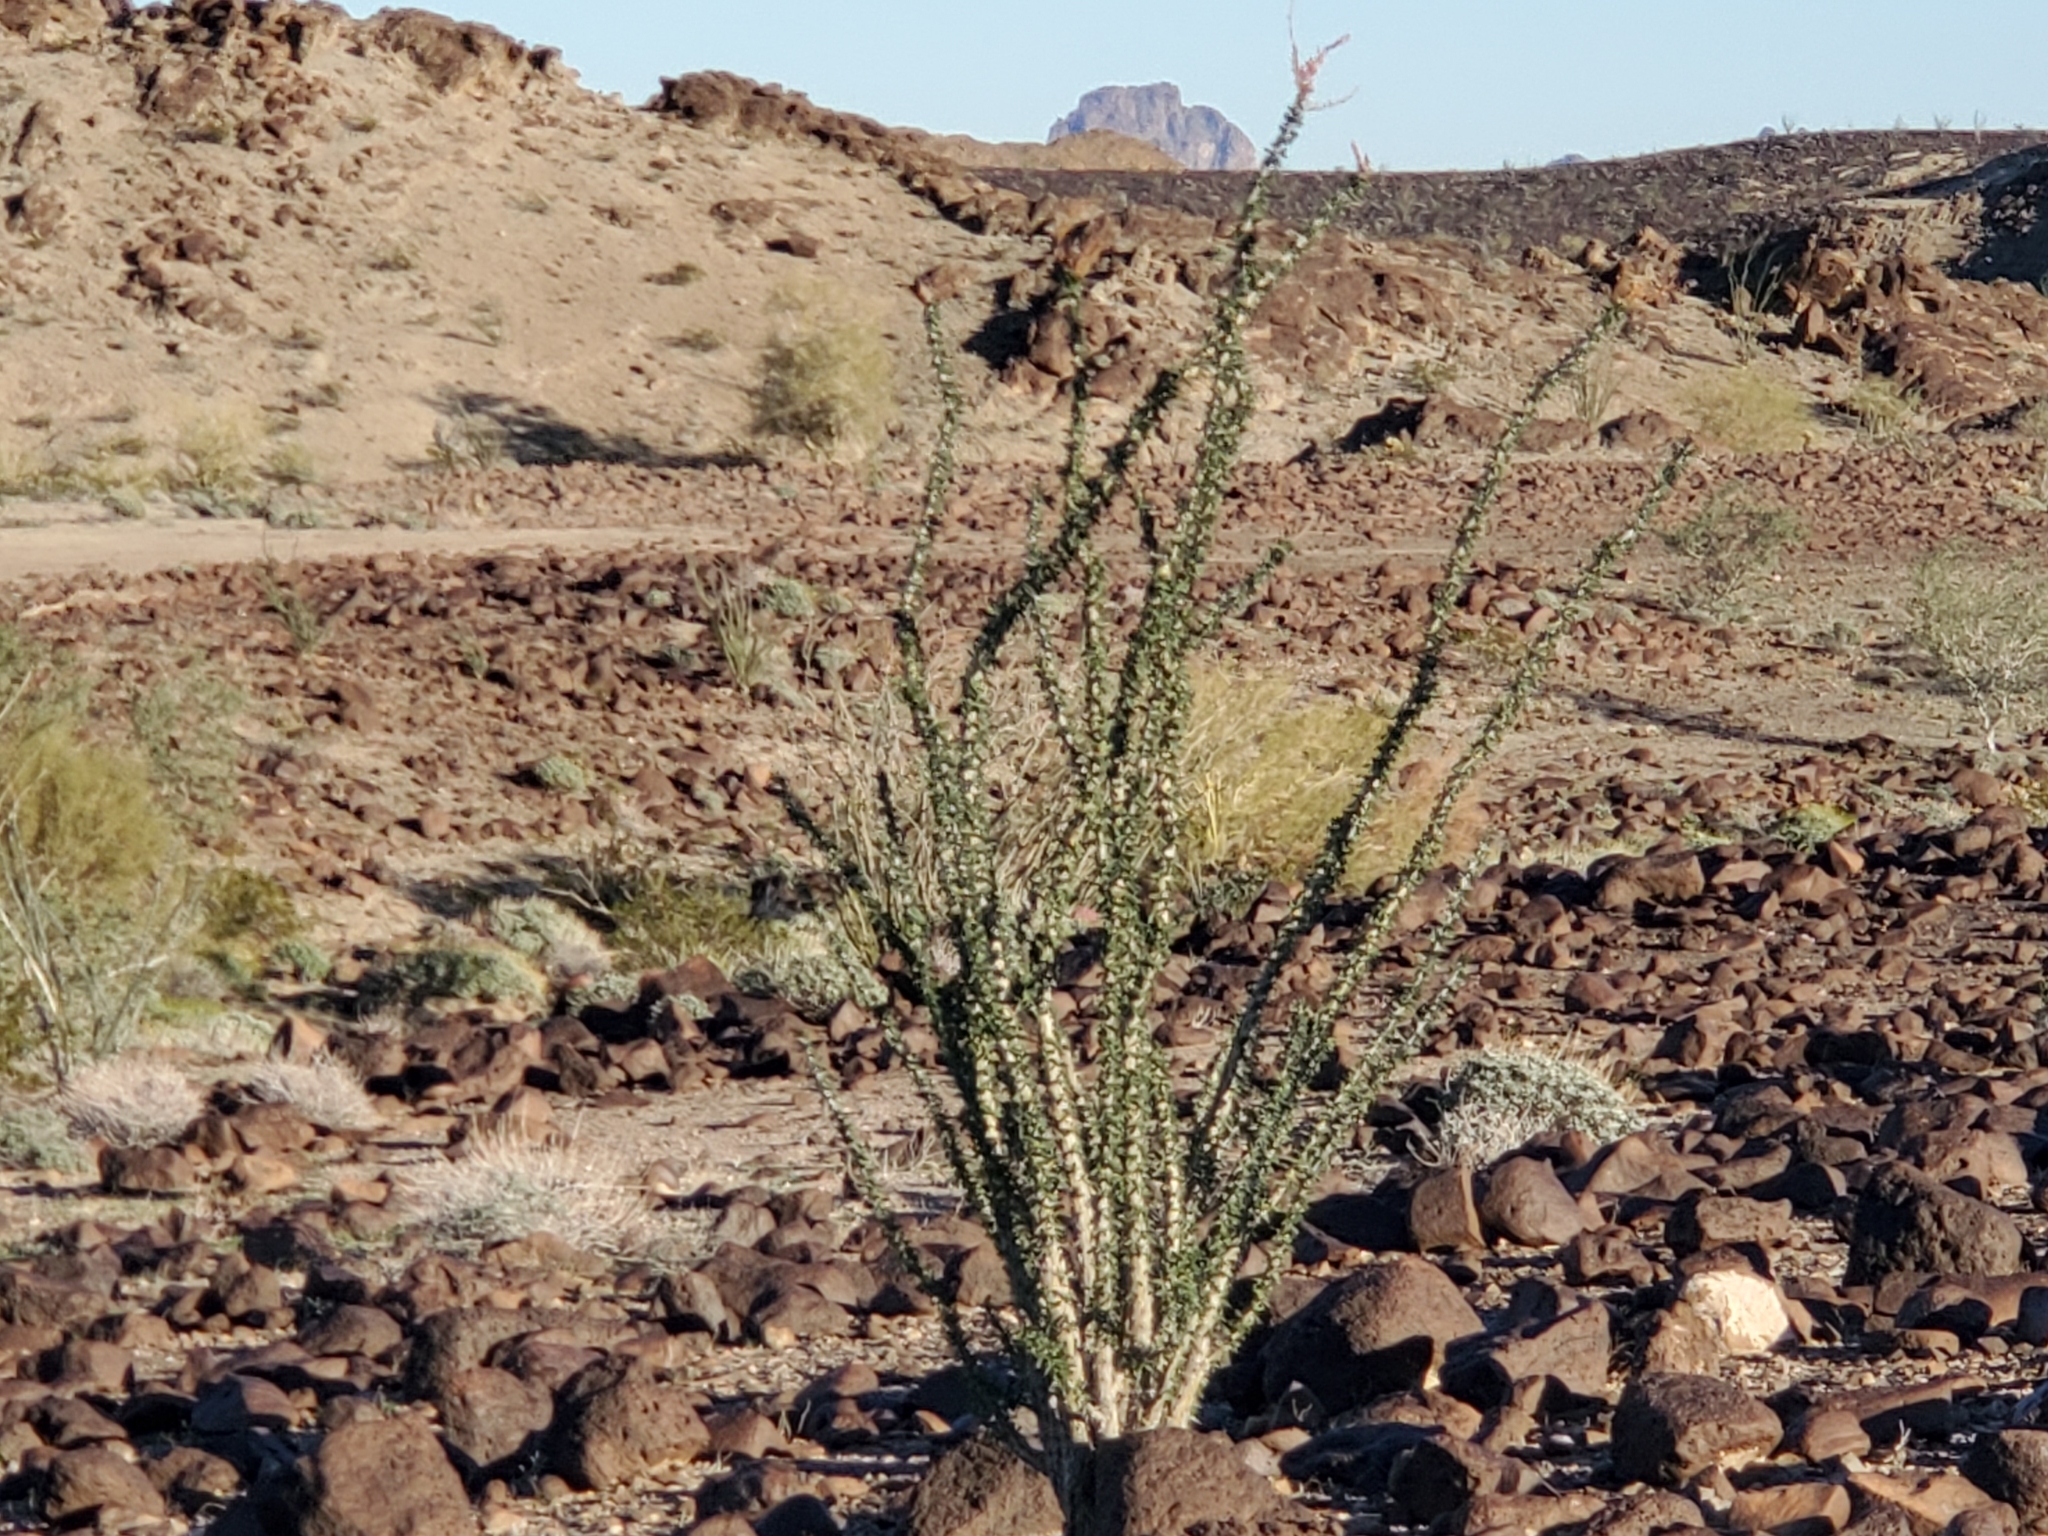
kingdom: Plantae
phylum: Tracheophyta
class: Magnoliopsida
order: Ericales
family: Fouquieriaceae
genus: Fouquieria
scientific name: Fouquieria splendens
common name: Vine-cactus
